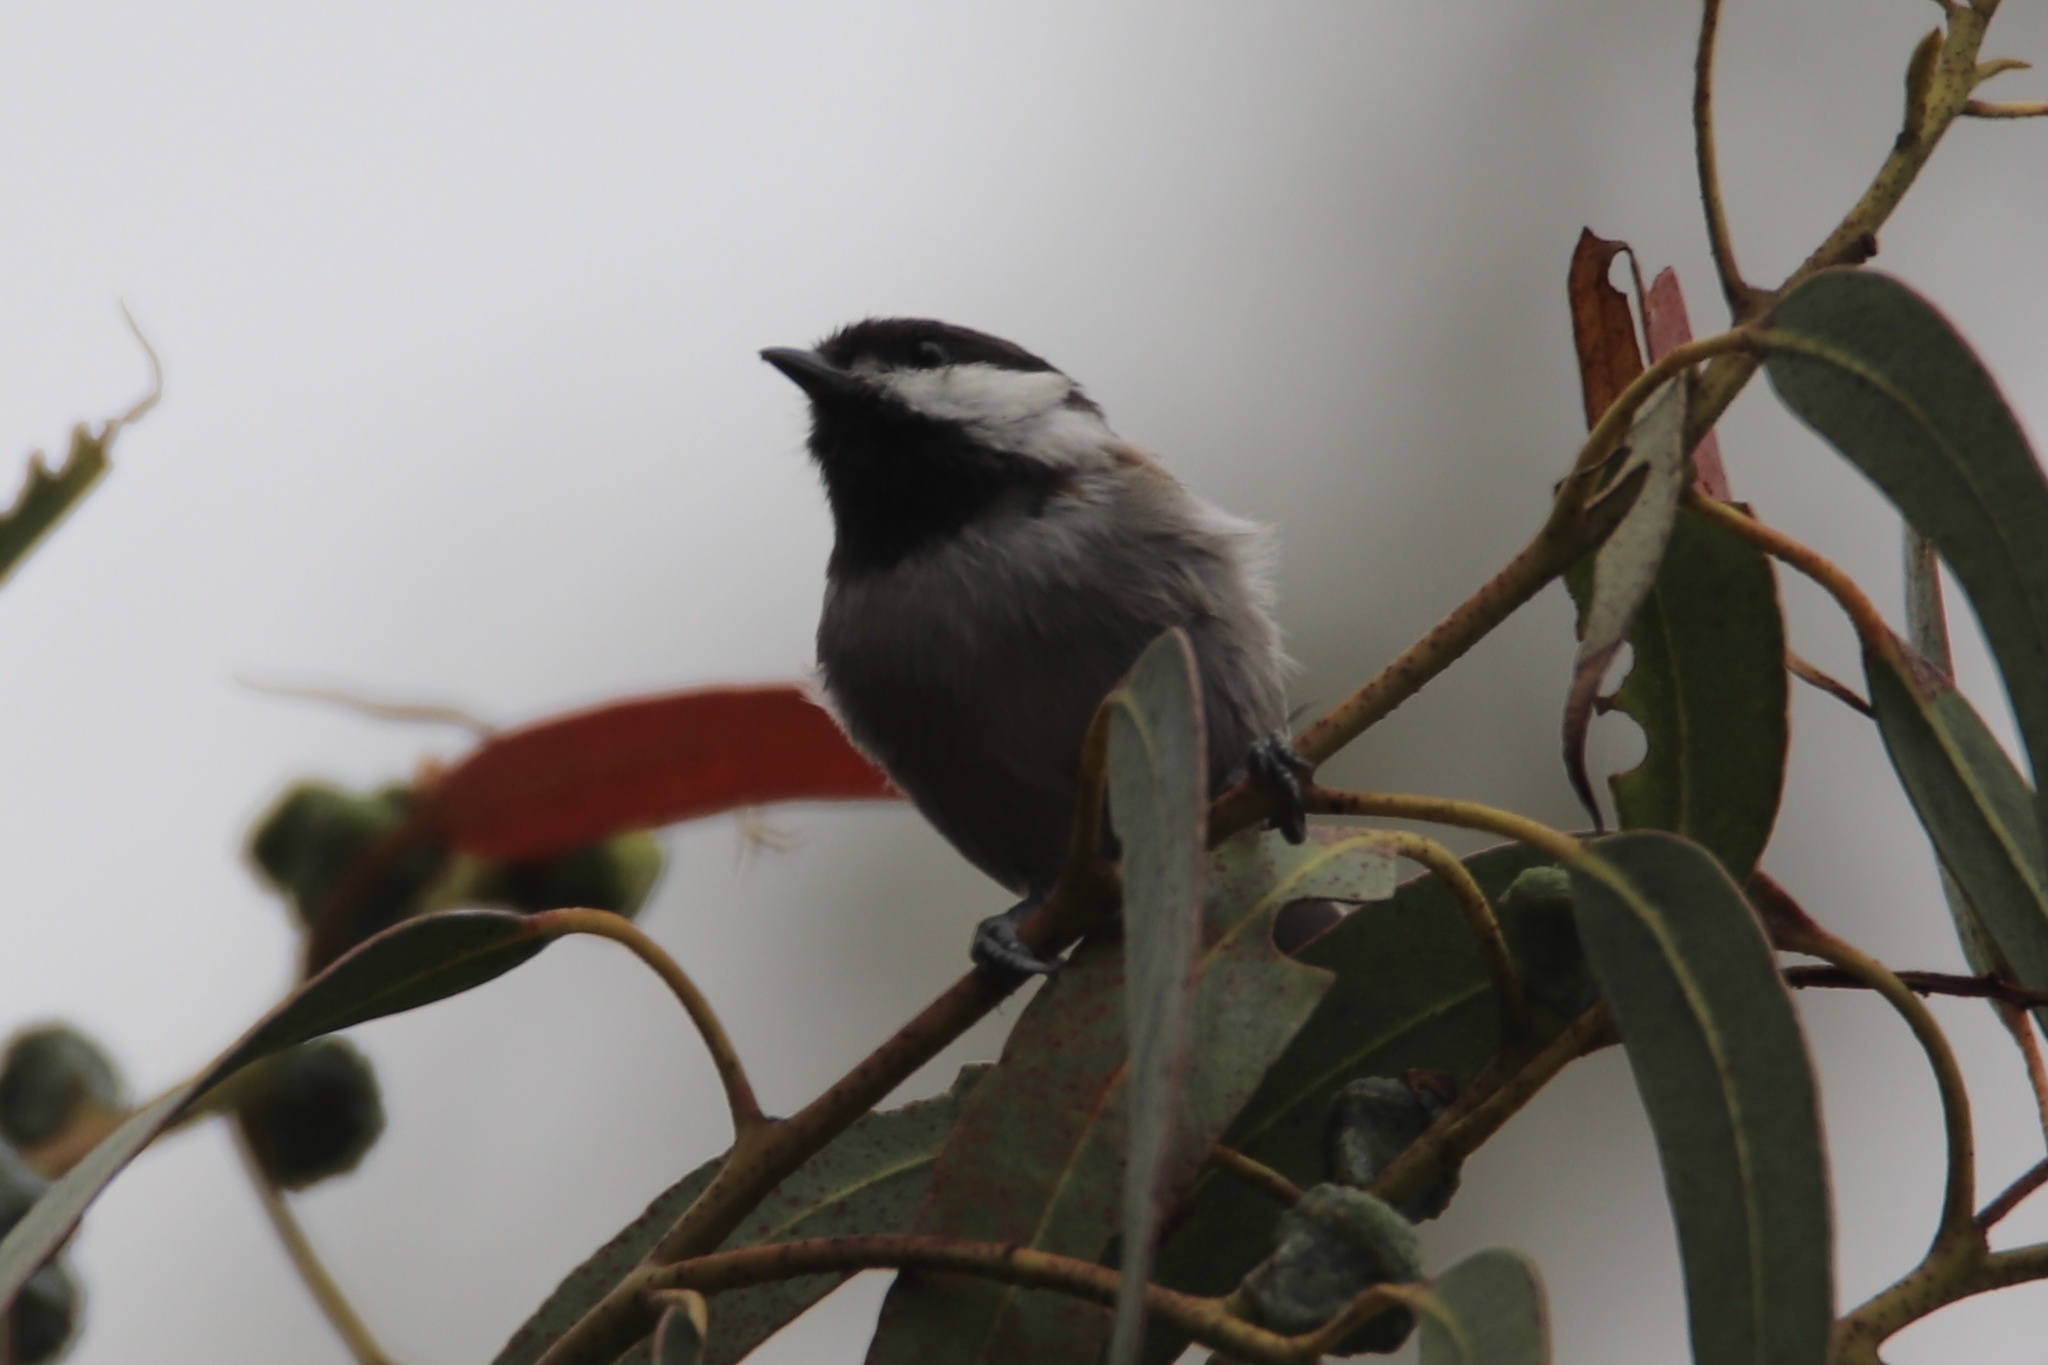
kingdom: Animalia
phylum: Chordata
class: Aves
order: Passeriformes
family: Paridae
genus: Poecile
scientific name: Poecile rufescens
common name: Chestnut-backed chickadee
